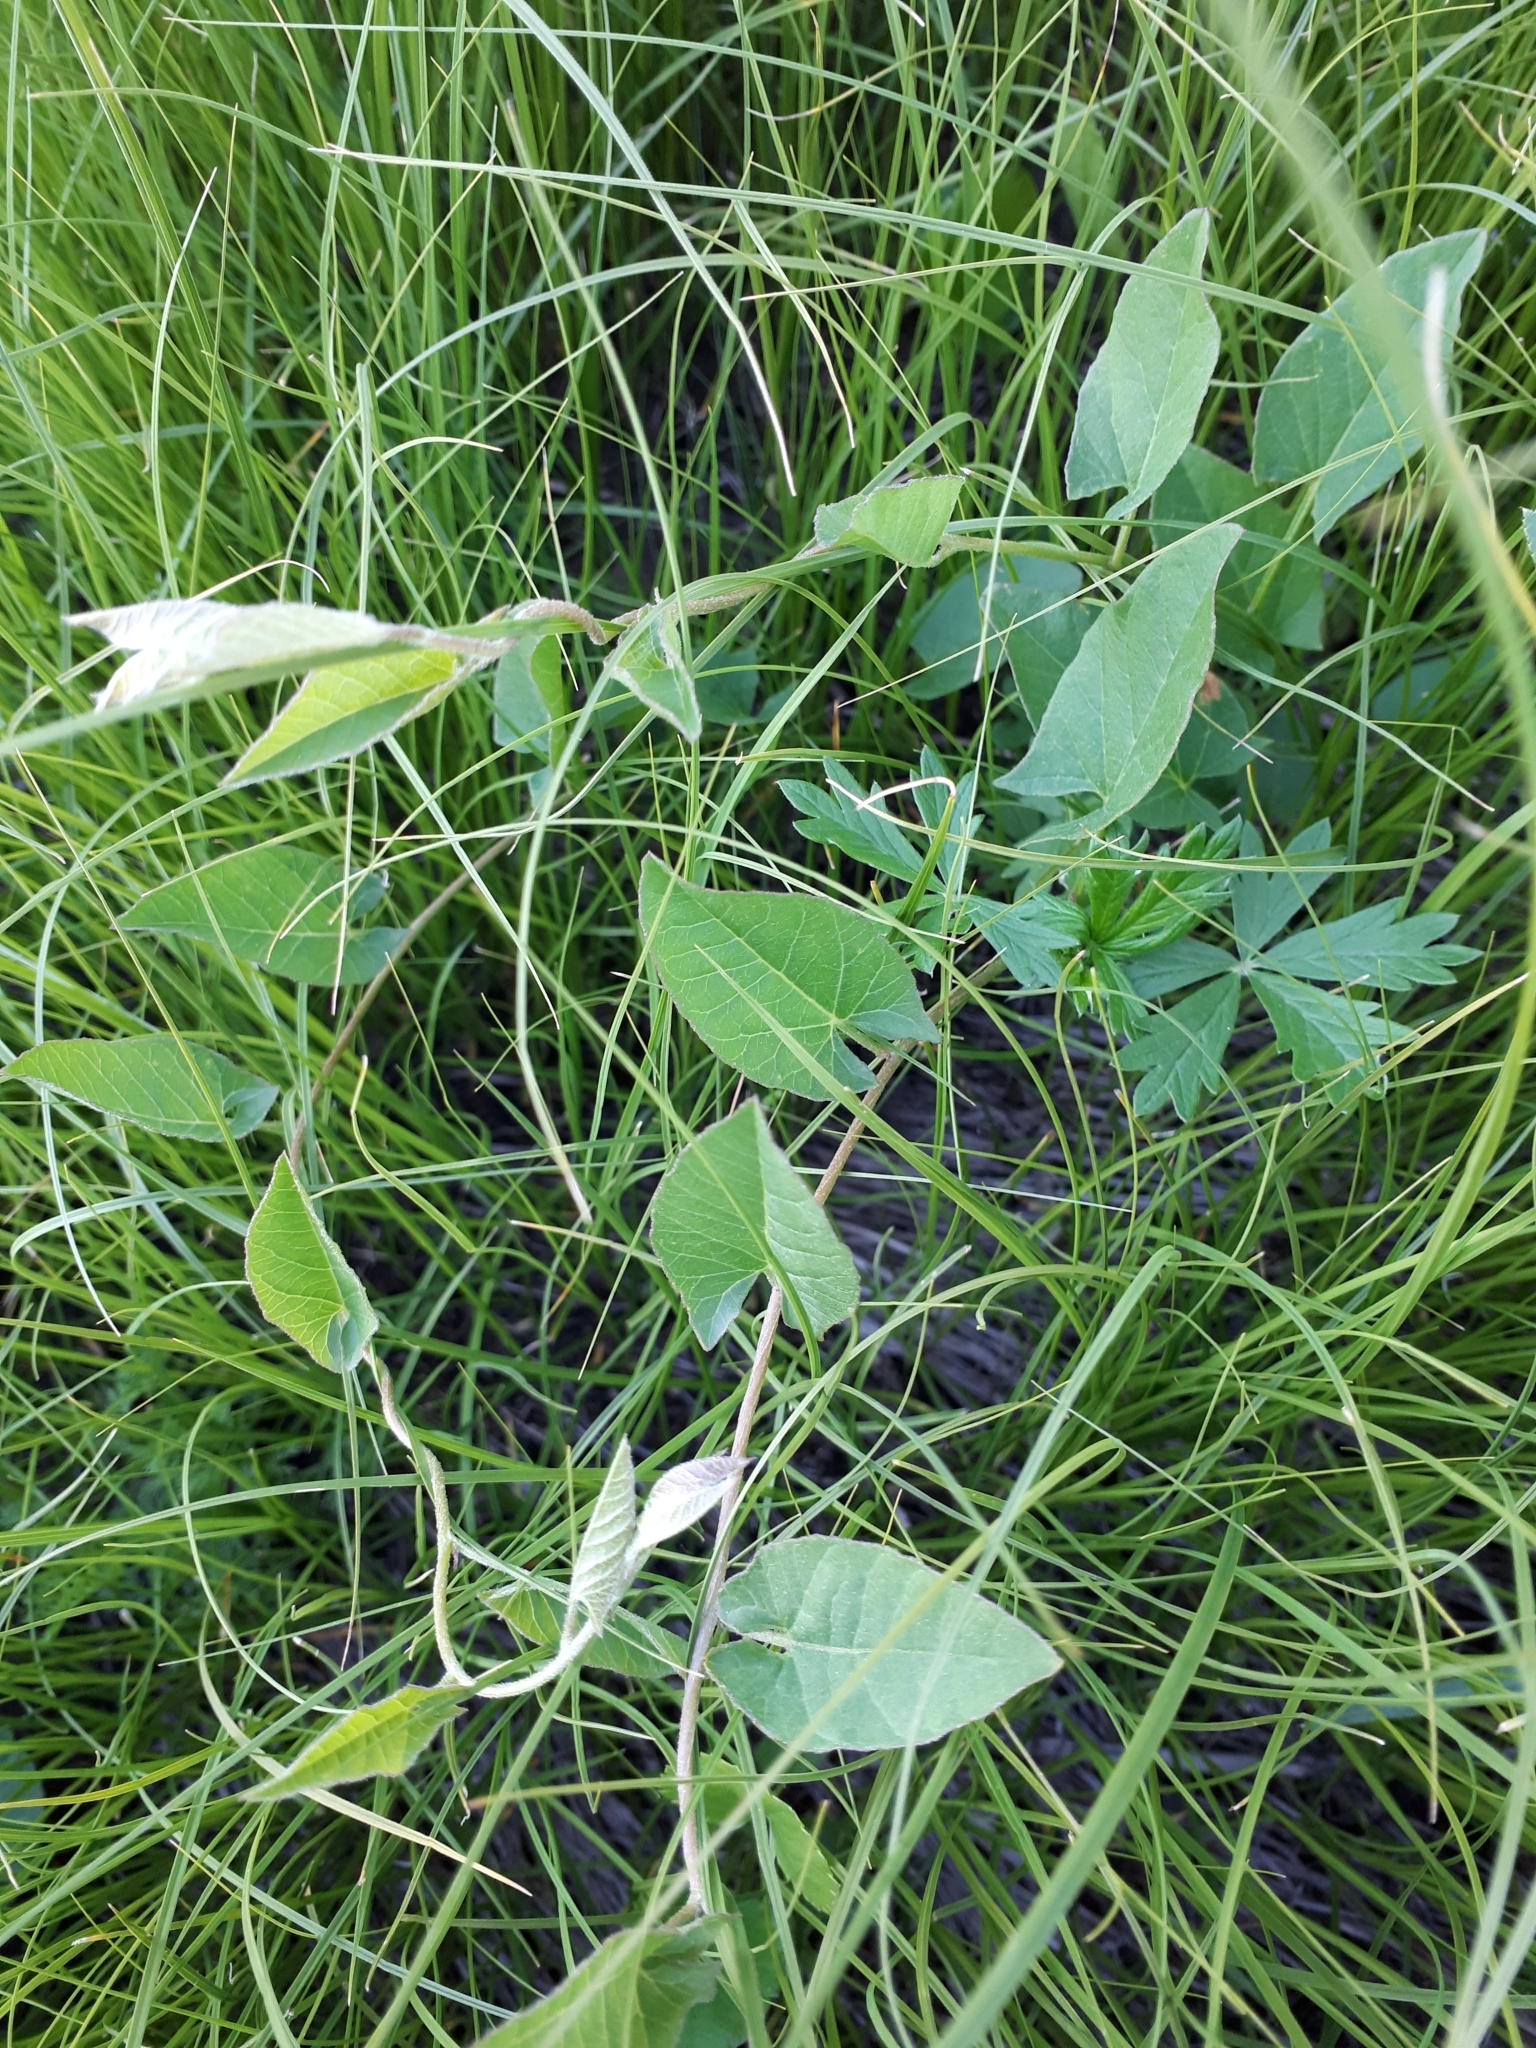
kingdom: Plantae
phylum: Tracheophyta
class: Magnoliopsida
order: Solanales
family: Convolvulaceae
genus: Convolvulus
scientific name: Convolvulus arvensis
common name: Field bindweed
